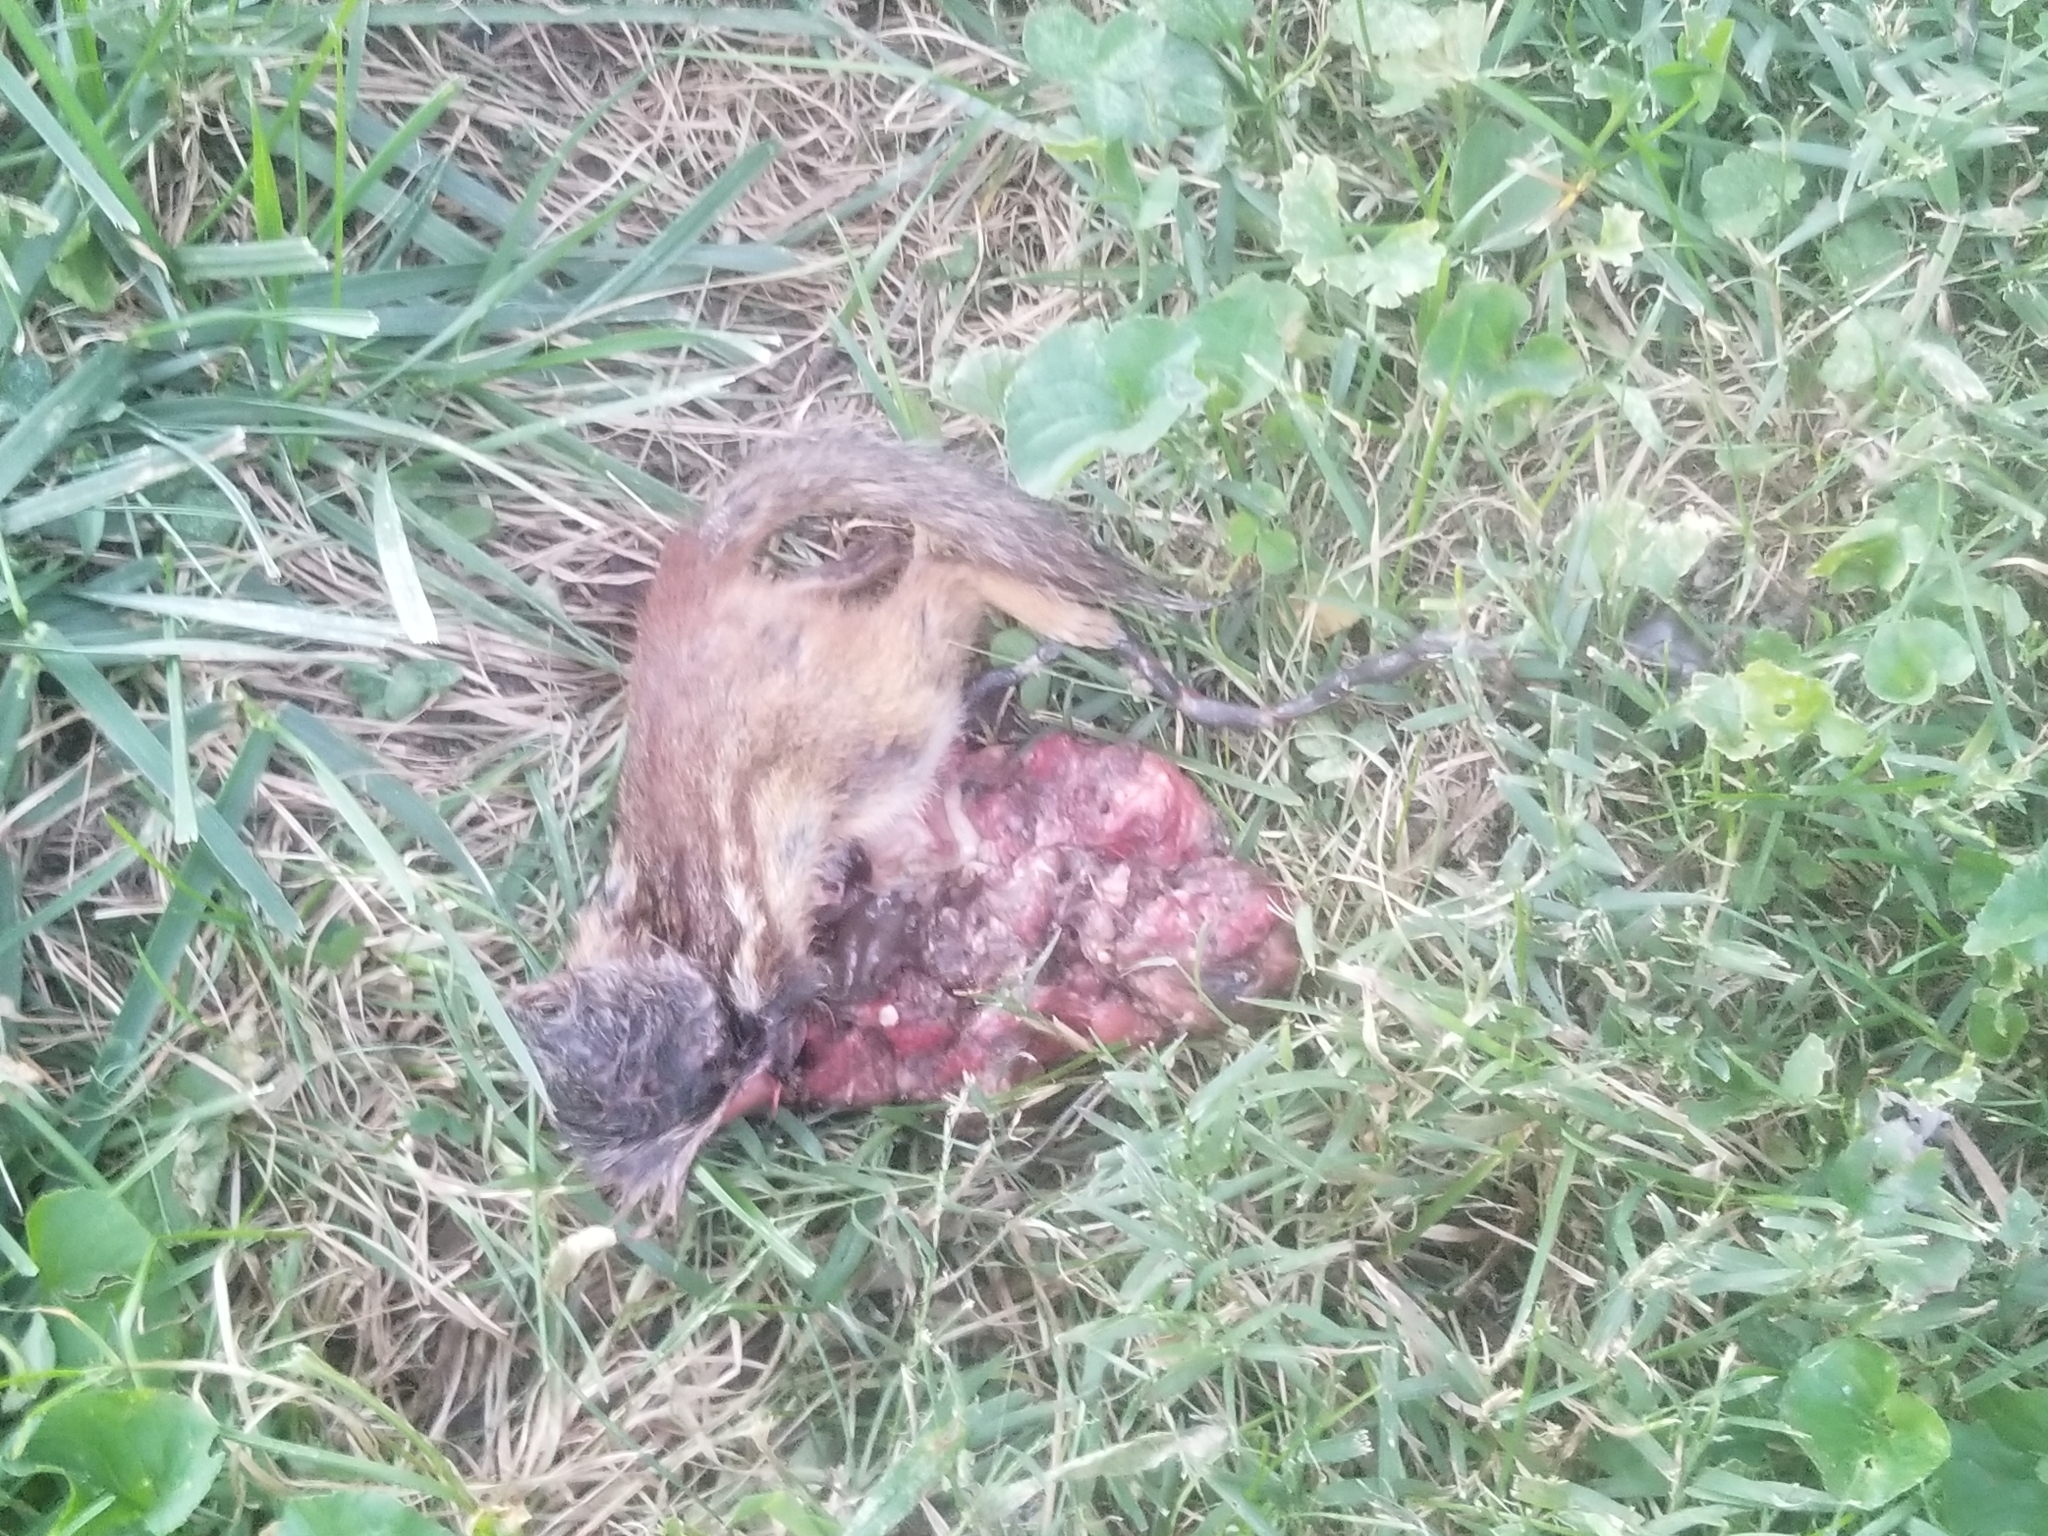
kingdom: Animalia
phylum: Chordata
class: Mammalia
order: Rodentia
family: Sciuridae
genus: Tamias
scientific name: Tamias striatus
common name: Eastern chipmunk
